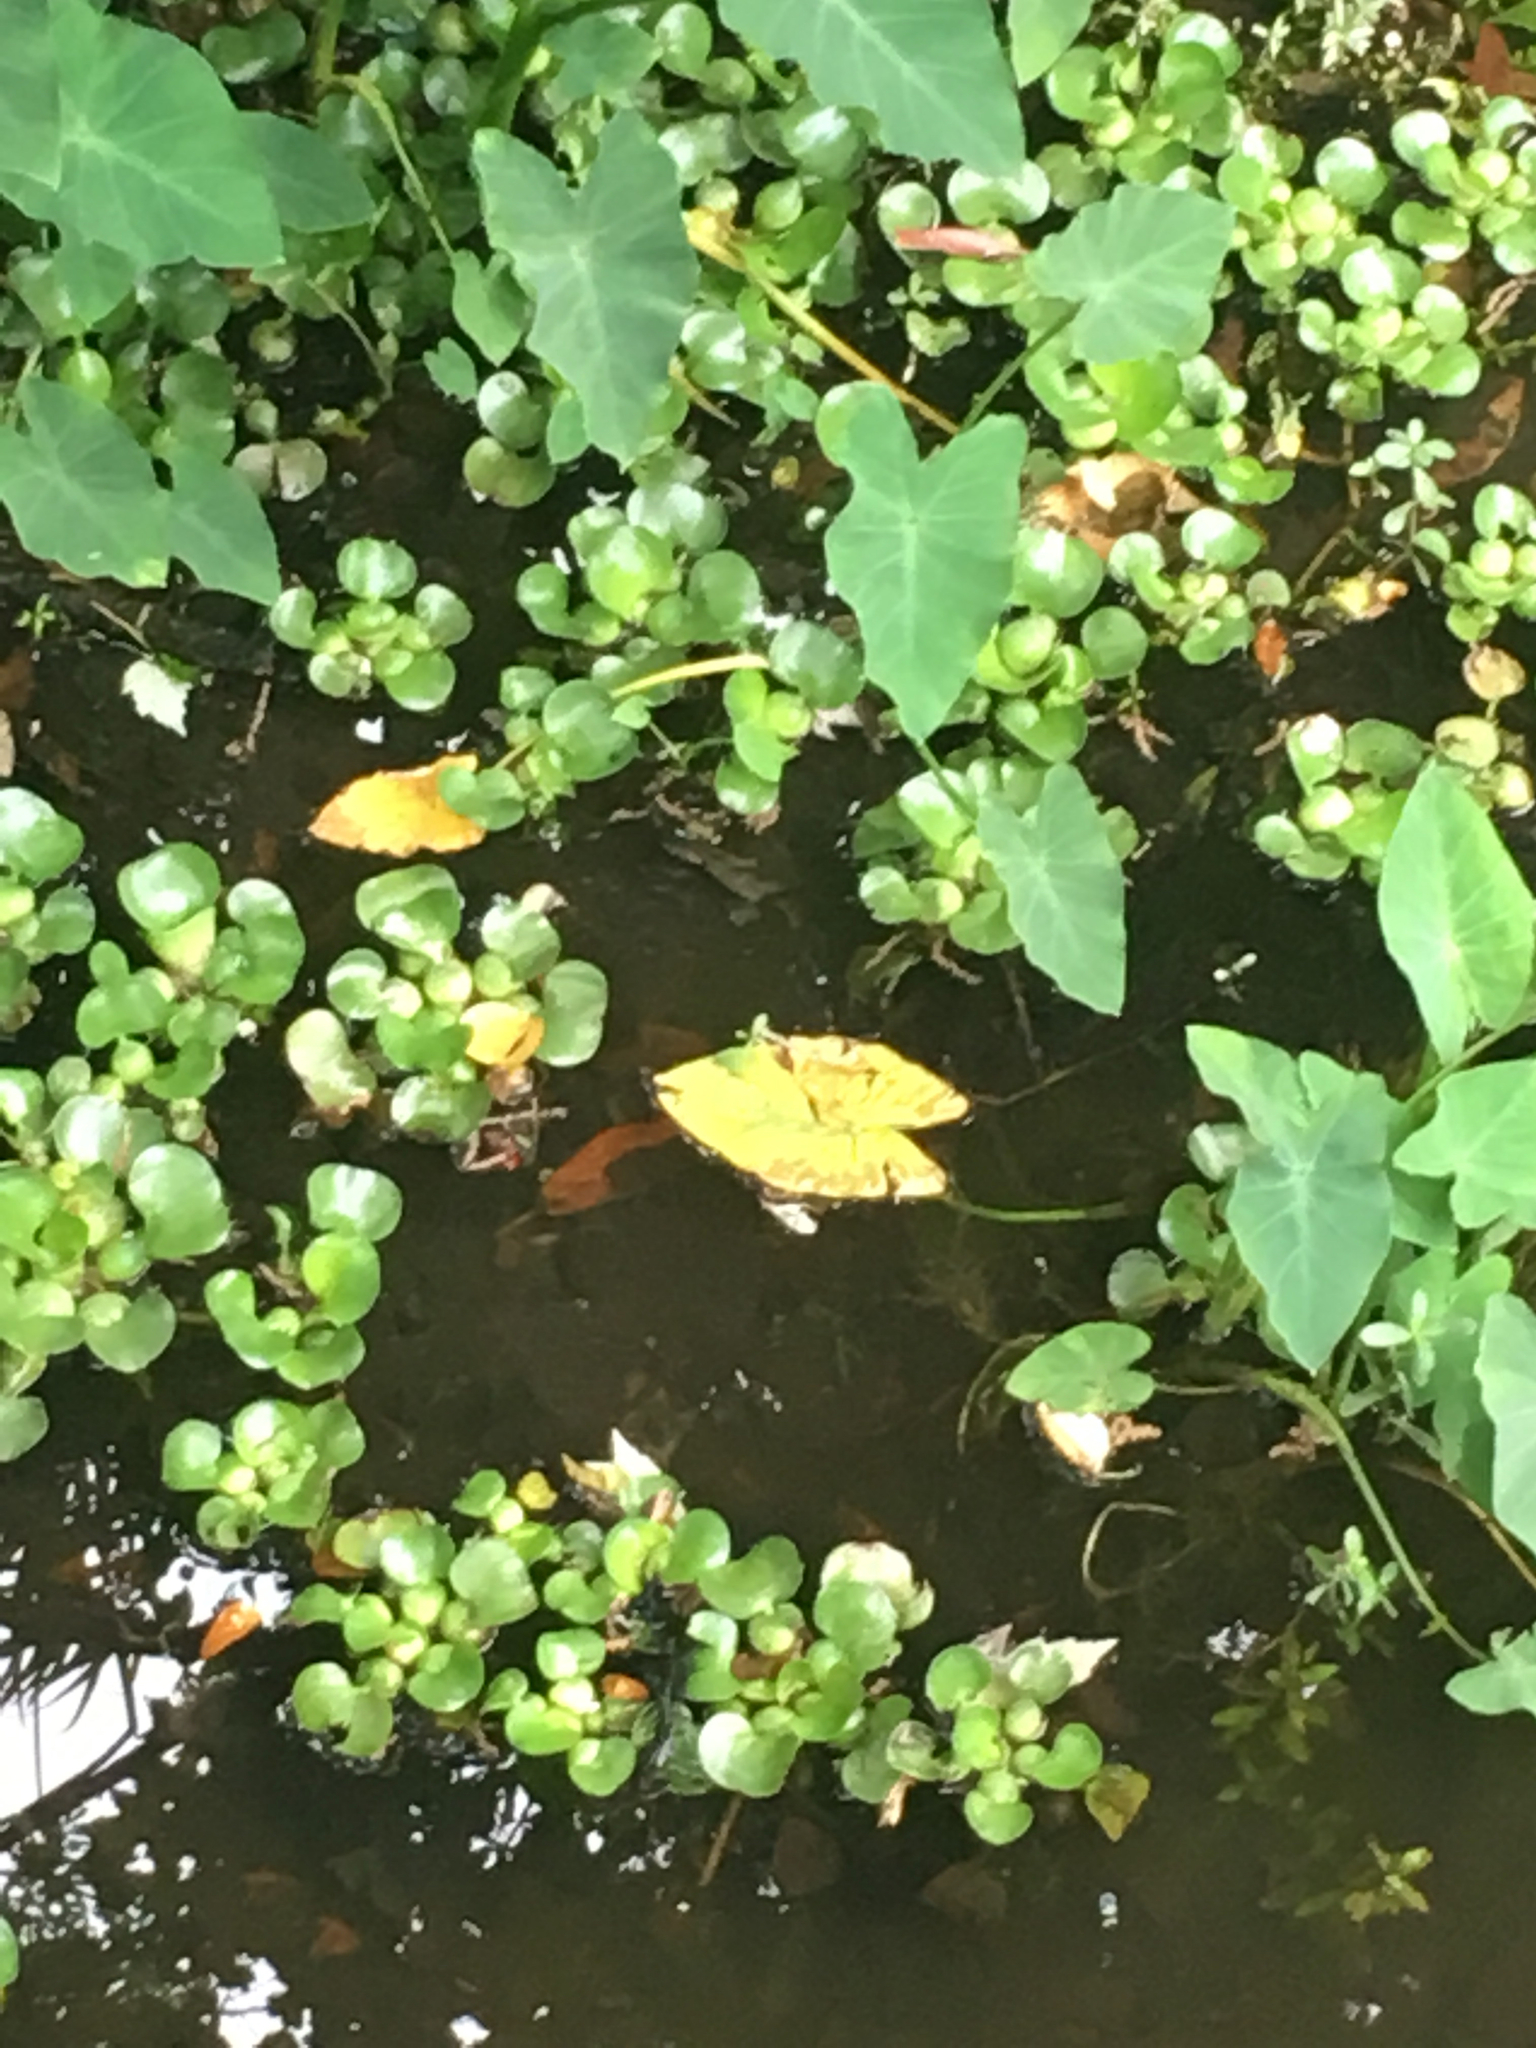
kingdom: Plantae
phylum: Tracheophyta
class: Liliopsida
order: Commelinales
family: Pontederiaceae
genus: Pontederia
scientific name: Pontederia crassipes
